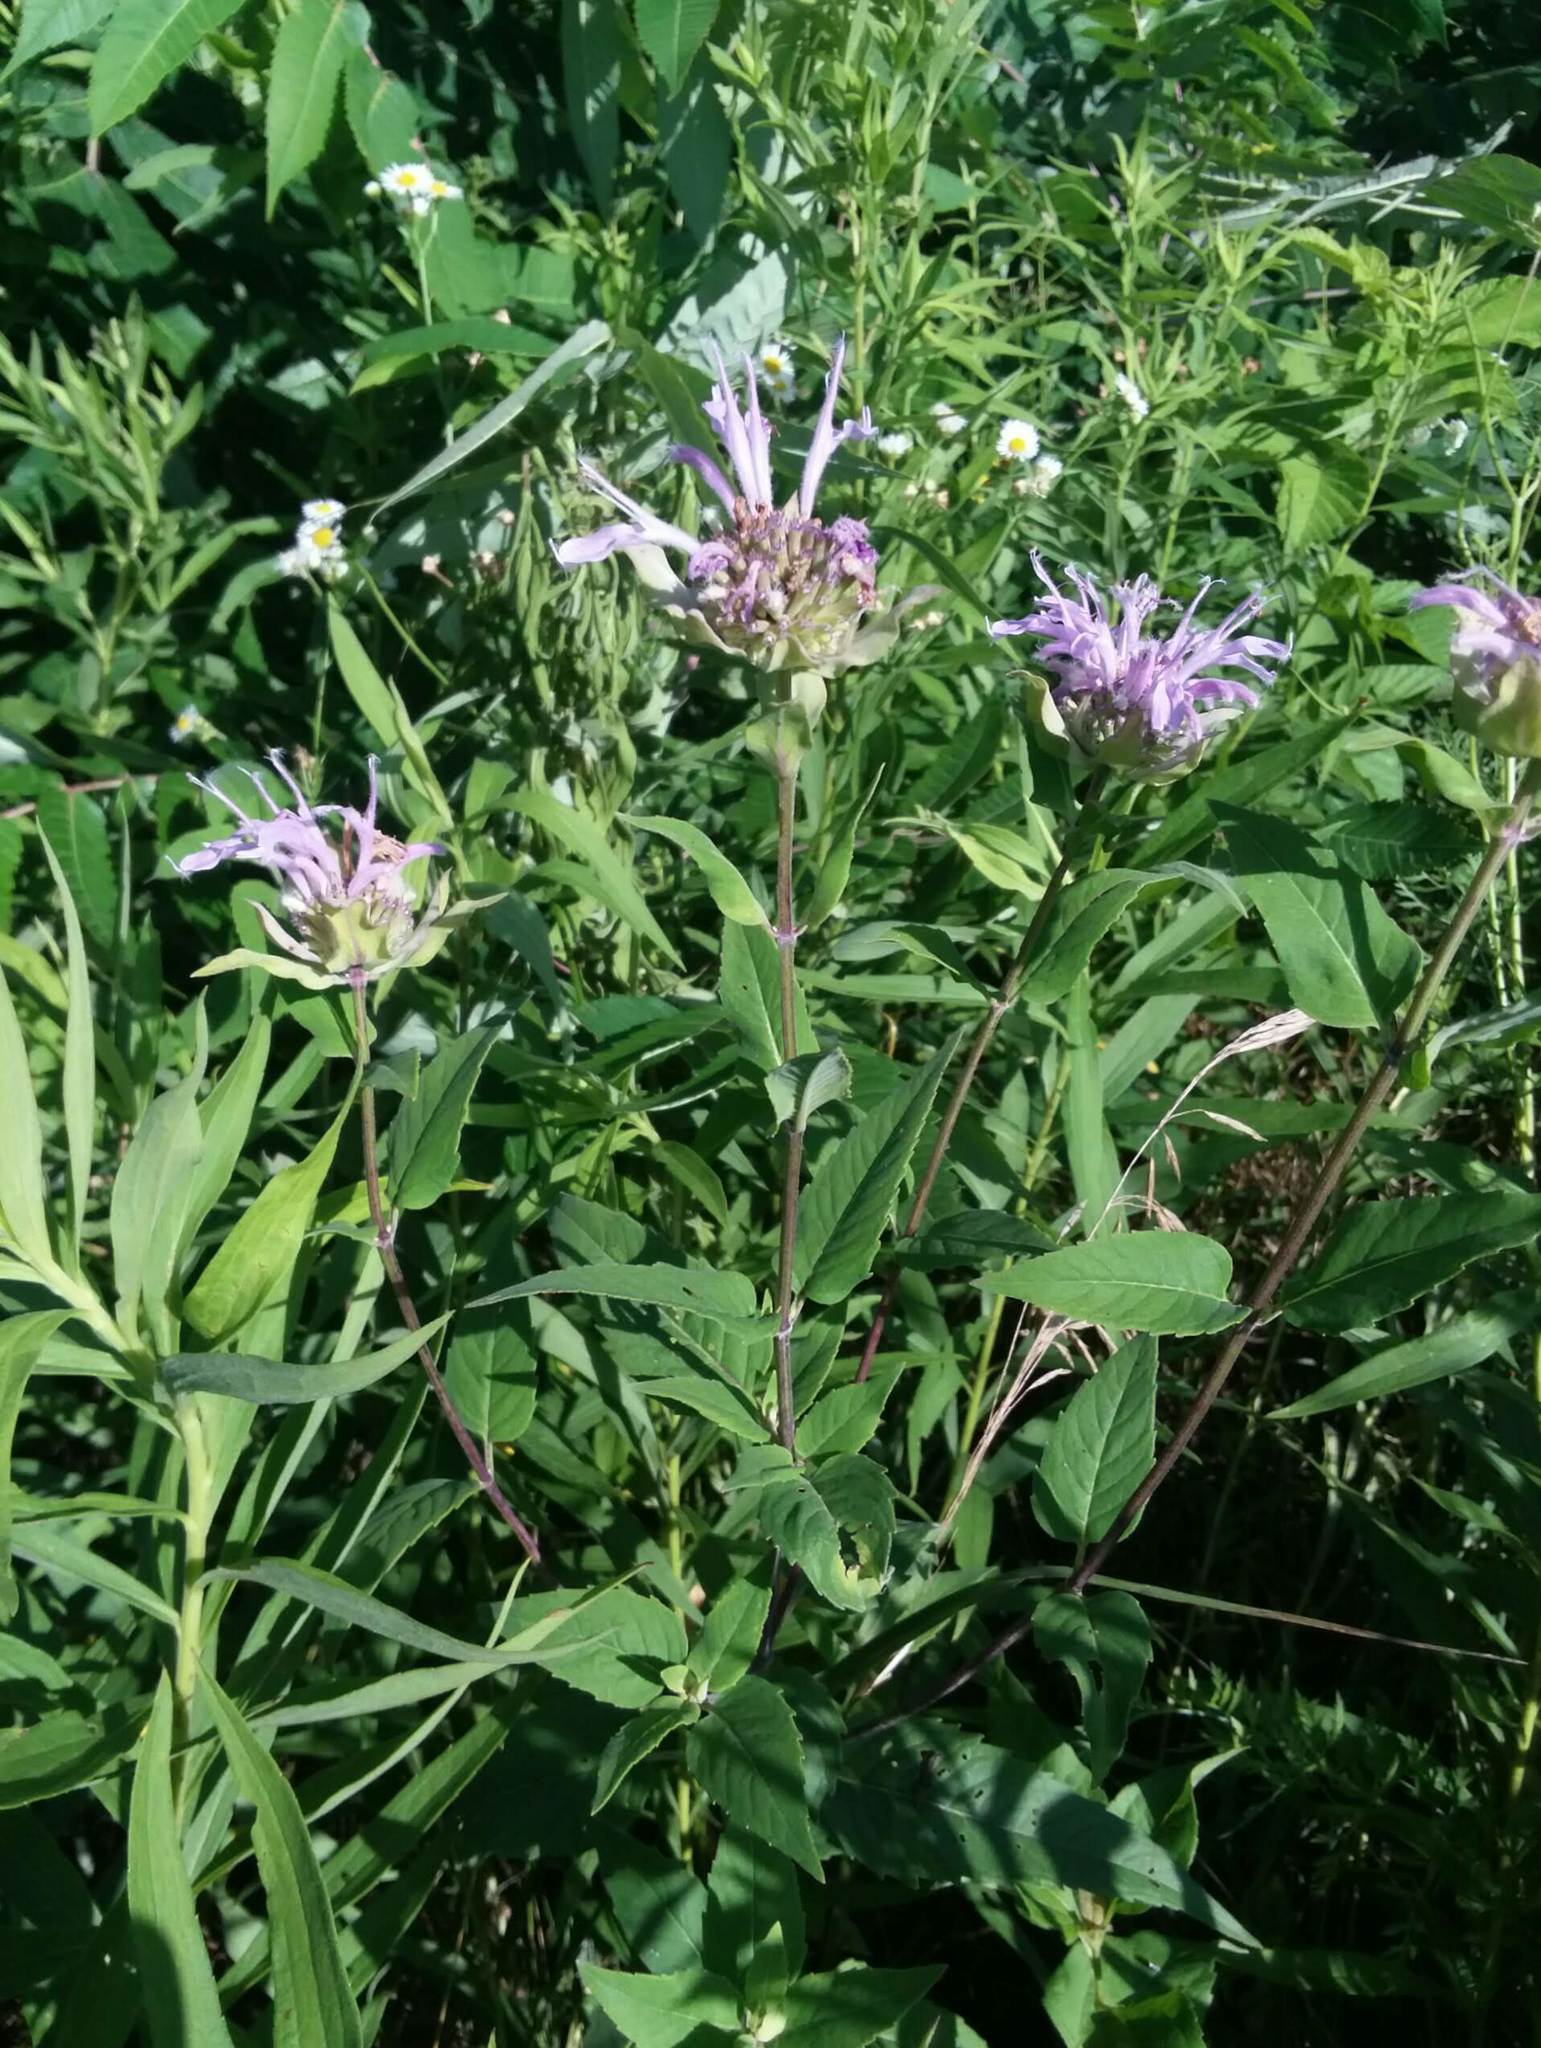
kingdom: Plantae
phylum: Tracheophyta
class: Magnoliopsida
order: Lamiales
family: Lamiaceae
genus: Monarda
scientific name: Monarda fistulosa
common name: Purple beebalm
